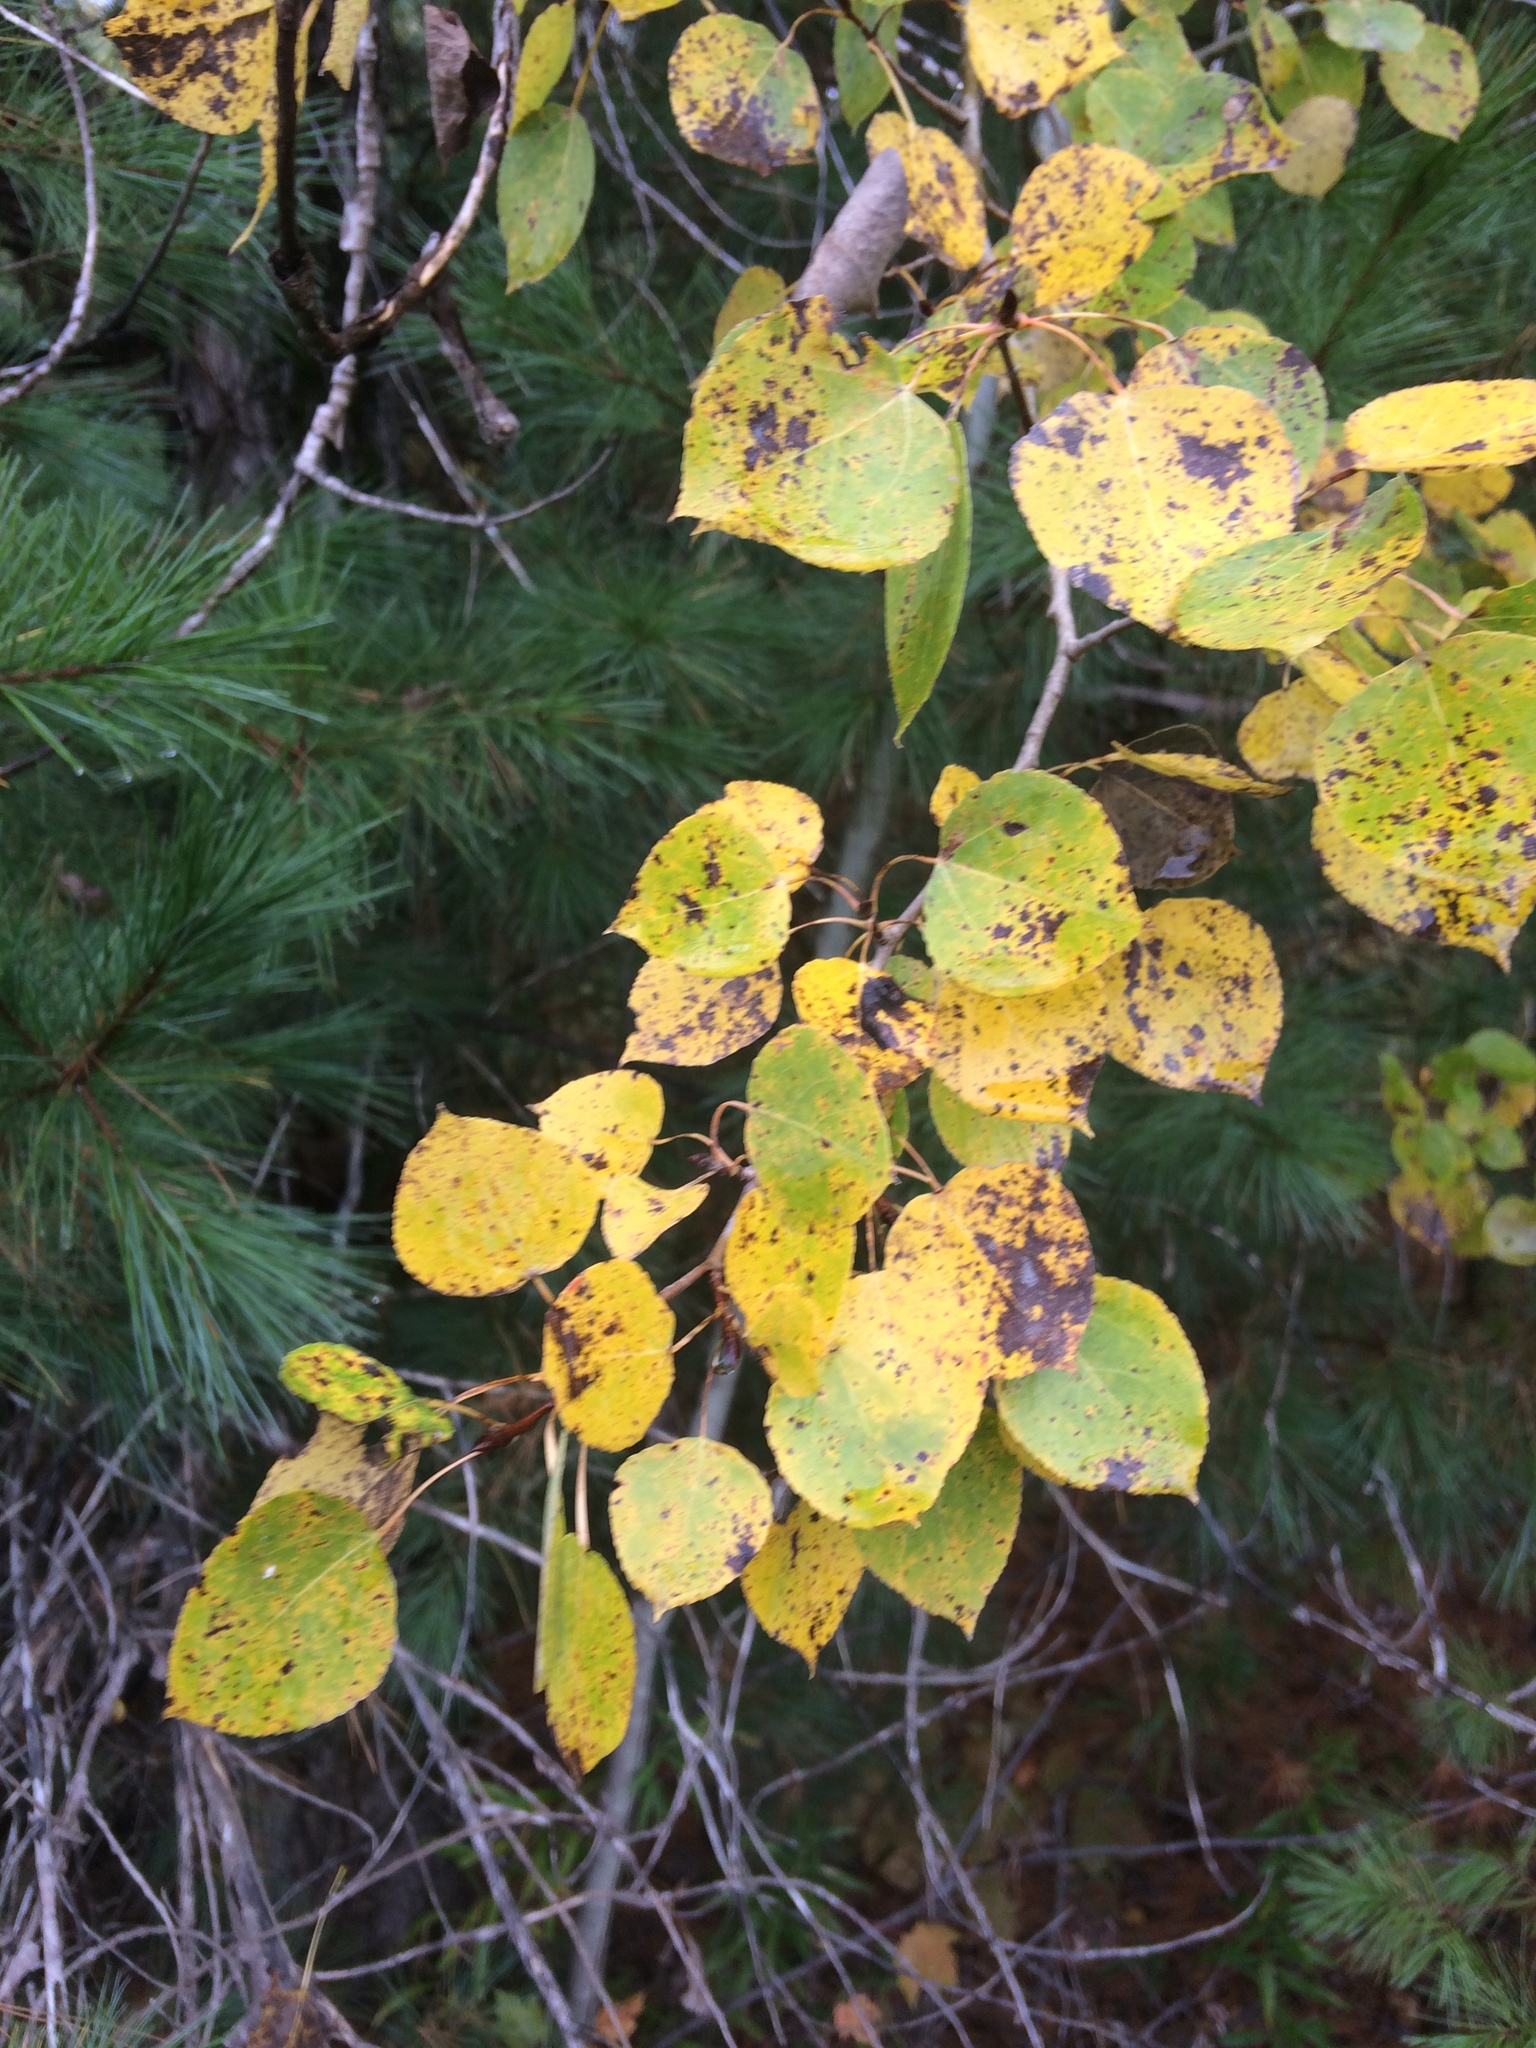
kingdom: Plantae
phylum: Tracheophyta
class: Magnoliopsida
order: Malpighiales
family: Salicaceae
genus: Populus
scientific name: Populus tremuloides
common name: Quaking aspen
